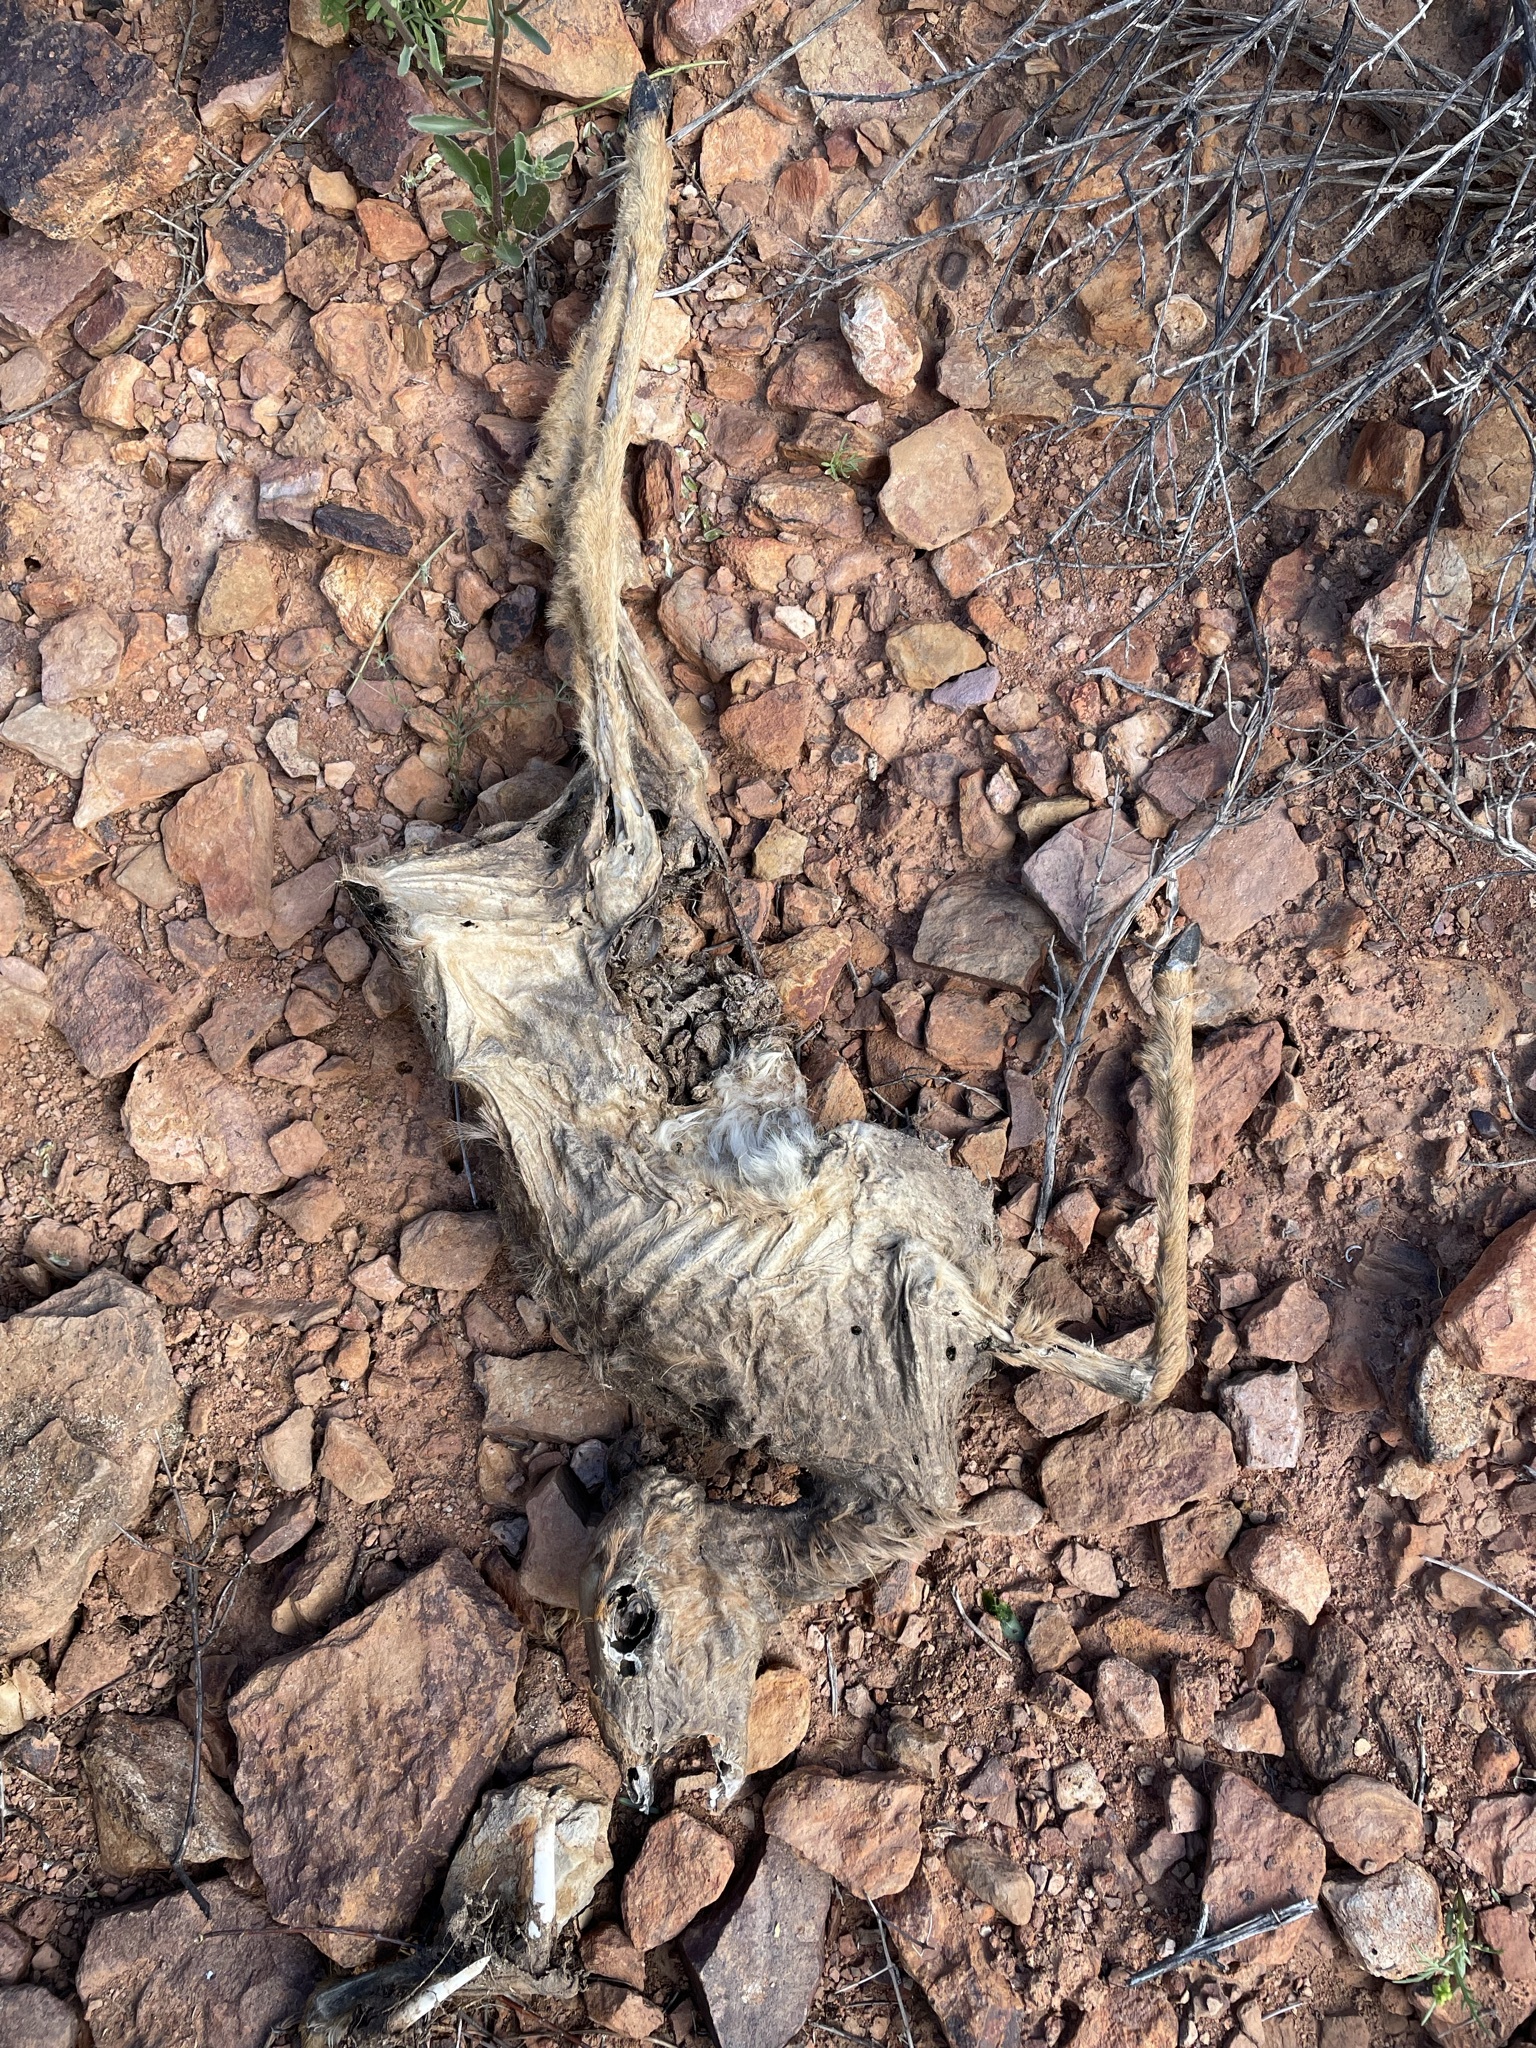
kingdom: Animalia
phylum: Chordata
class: Mammalia
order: Artiodactyla
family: Bovidae
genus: Raphicerus
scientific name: Raphicerus campestris
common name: Steenbok
